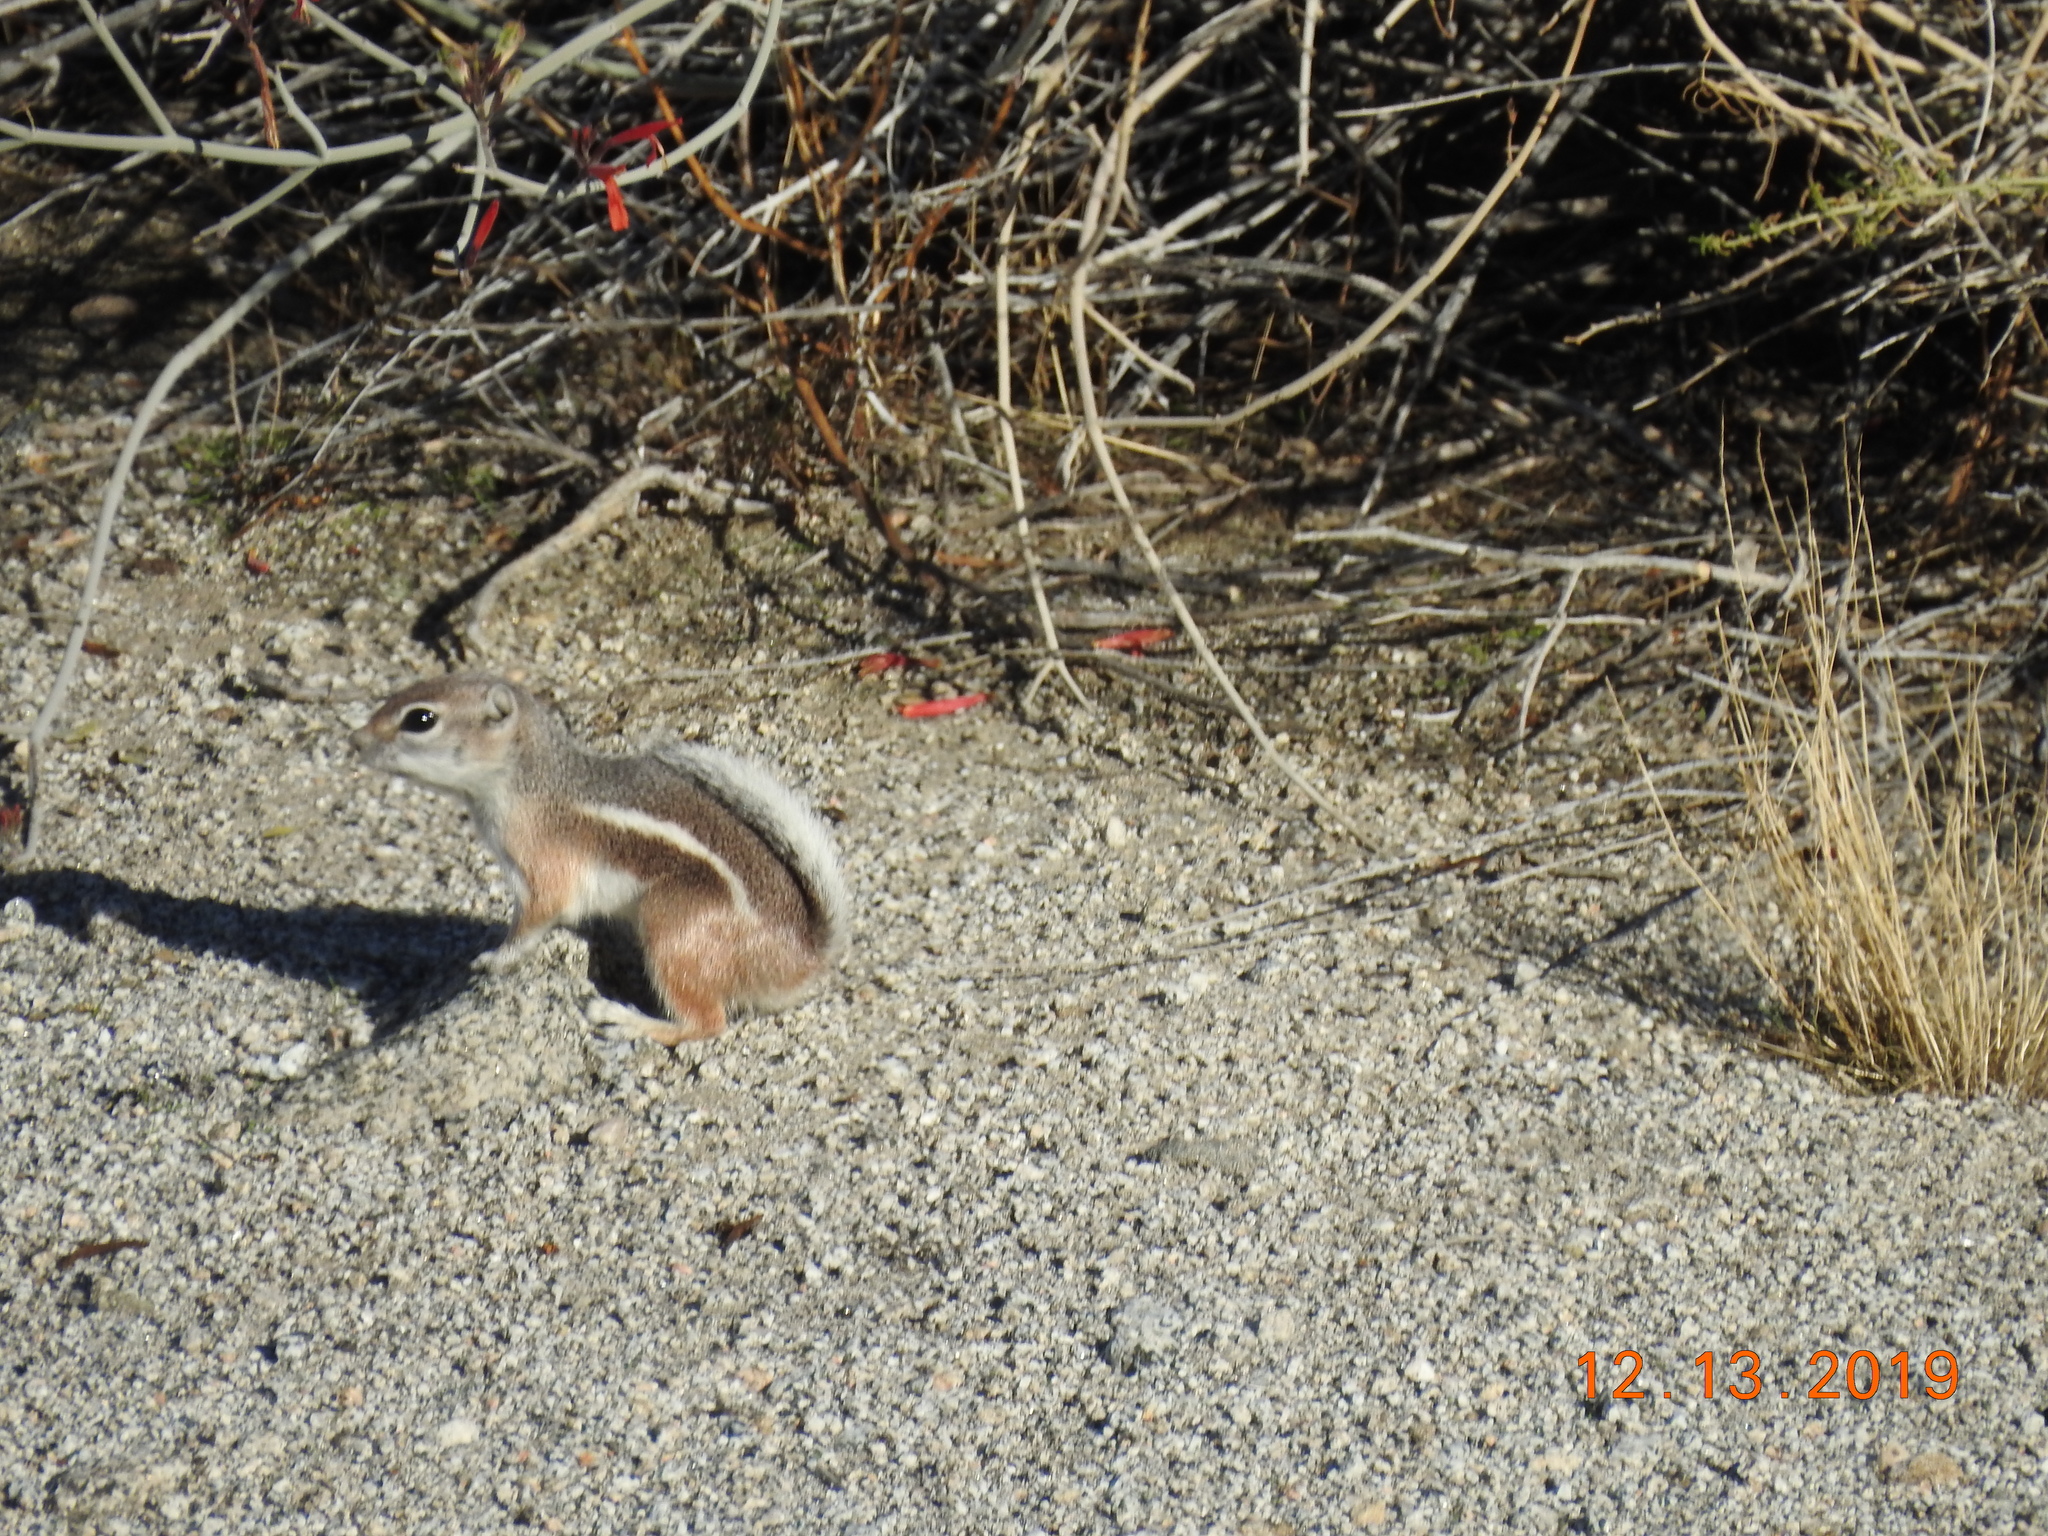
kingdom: Animalia
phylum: Chordata
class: Mammalia
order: Rodentia
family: Sciuridae
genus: Ammospermophilus
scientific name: Ammospermophilus leucurus
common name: White-tailed antelope squirrel
